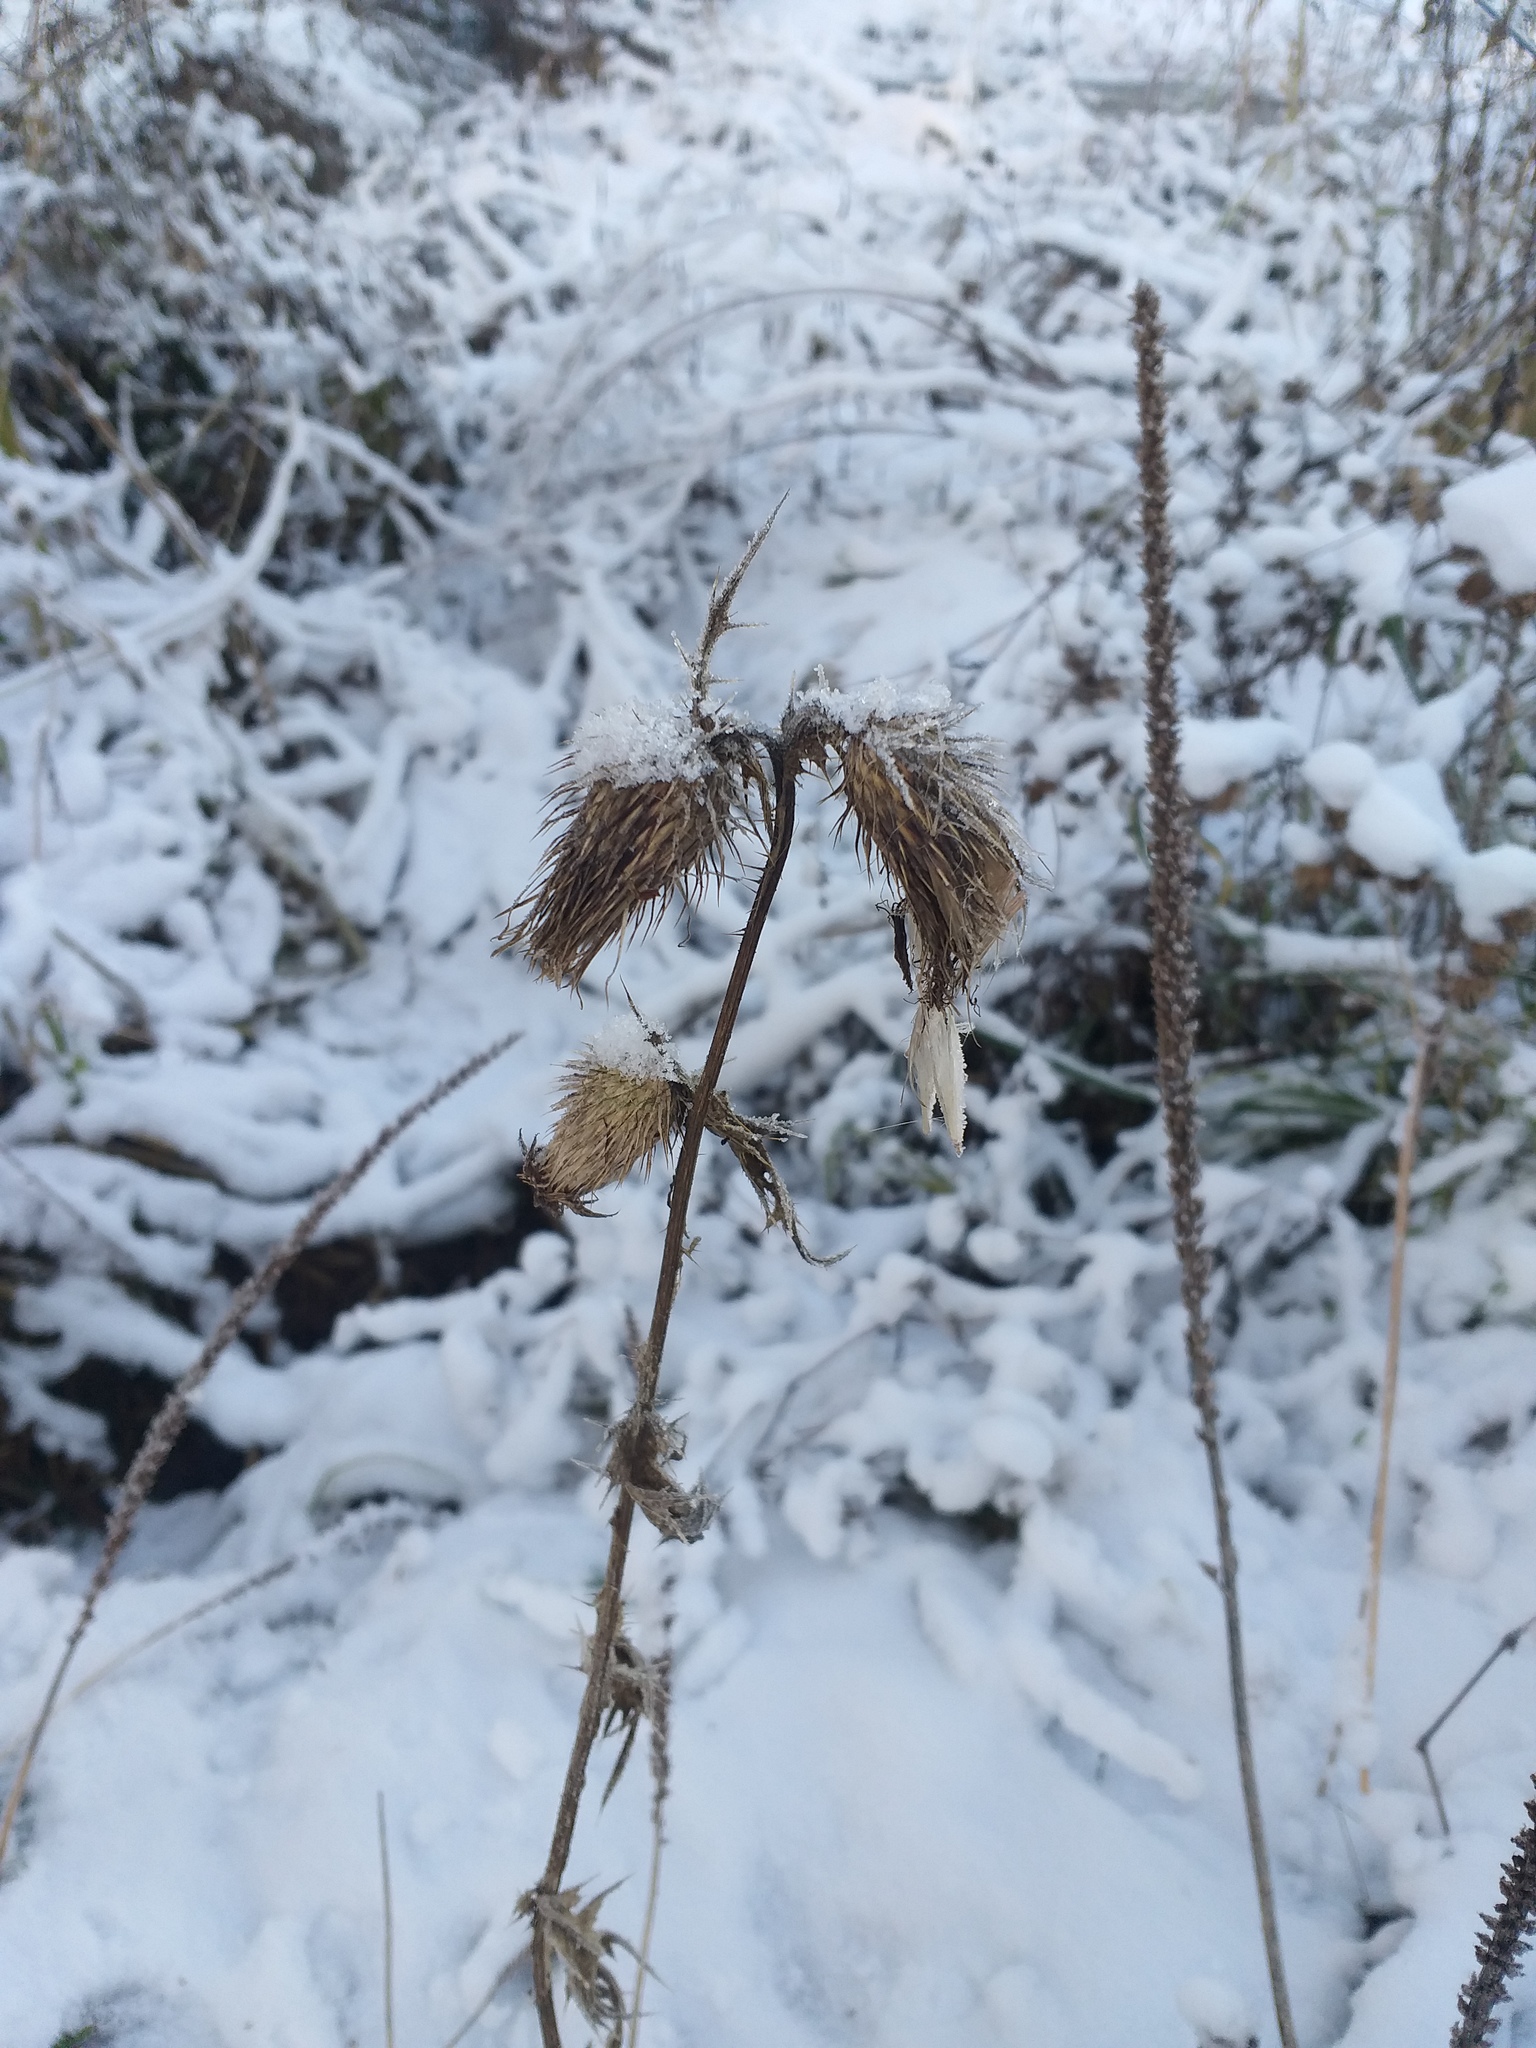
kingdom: Plantae
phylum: Tracheophyta
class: Magnoliopsida
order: Asterales
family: Asteraceae
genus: Cirsium
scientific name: Cirsium vulgare
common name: Bull thistle
